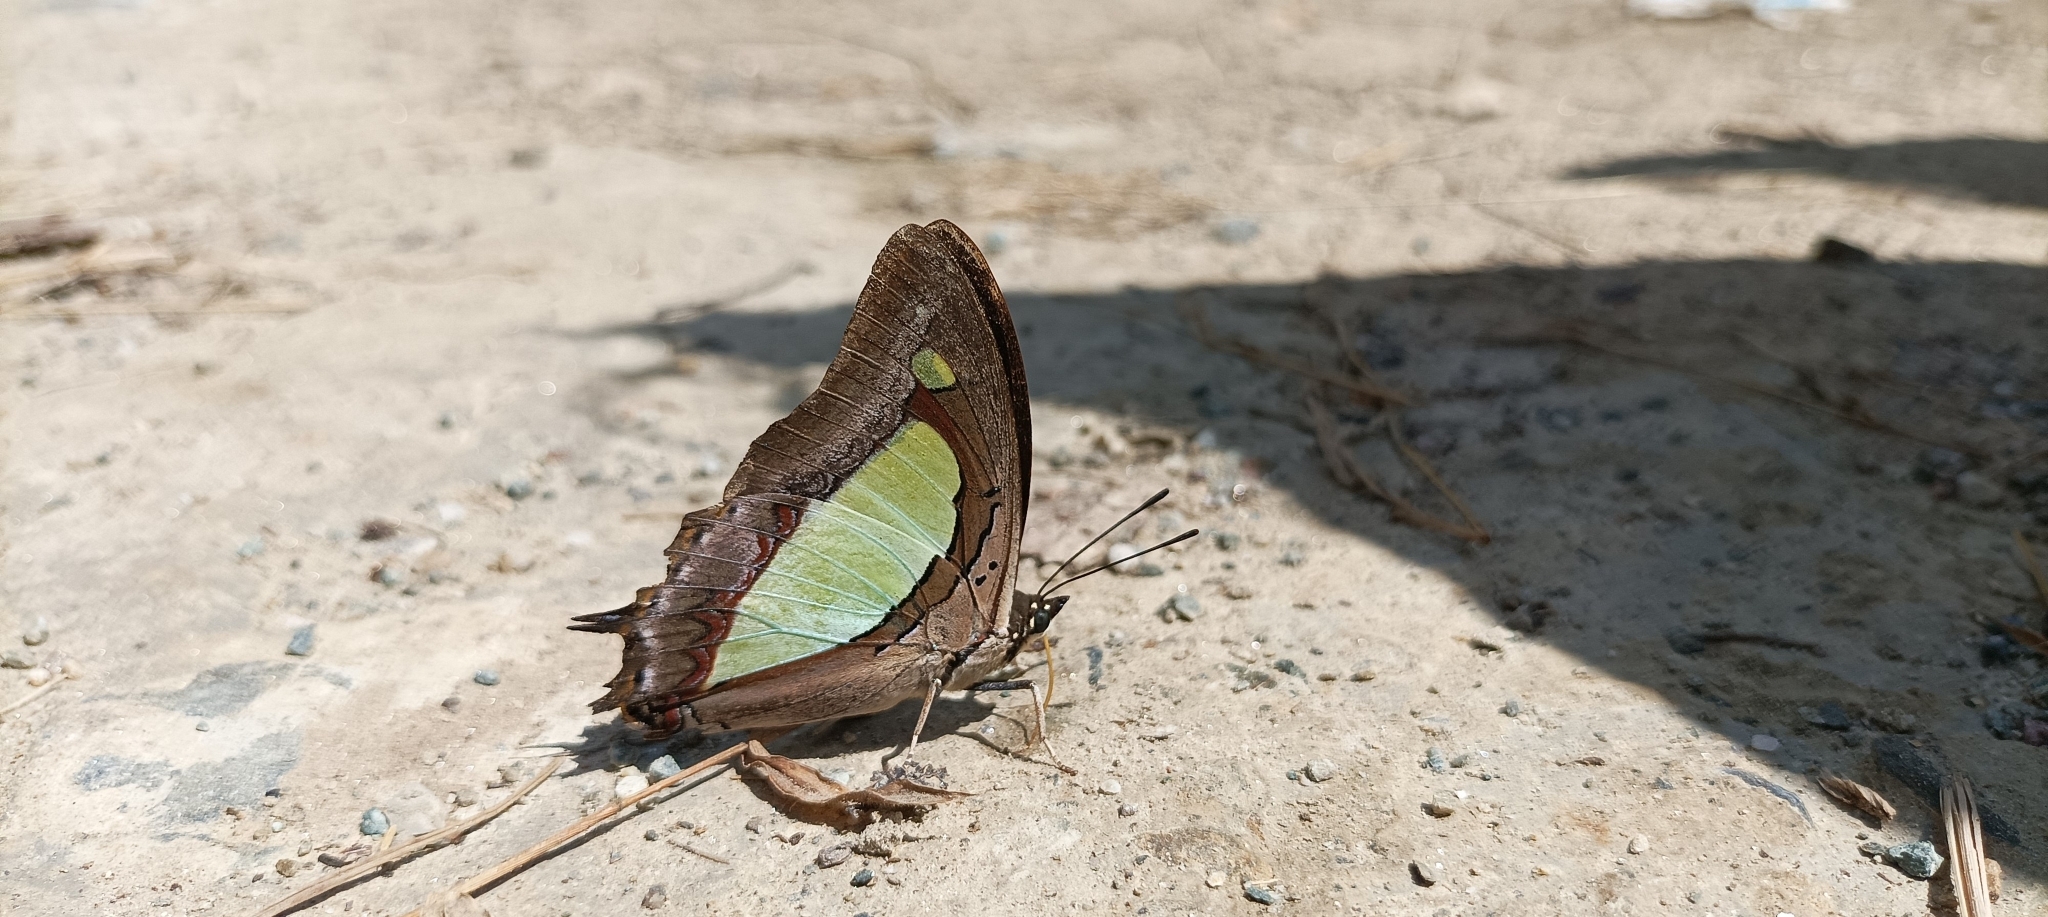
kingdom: Animalia
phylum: Arthropoda
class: Insecta
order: Lepidoptera
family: Nymphalidae
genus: Polyura
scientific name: Polyura
